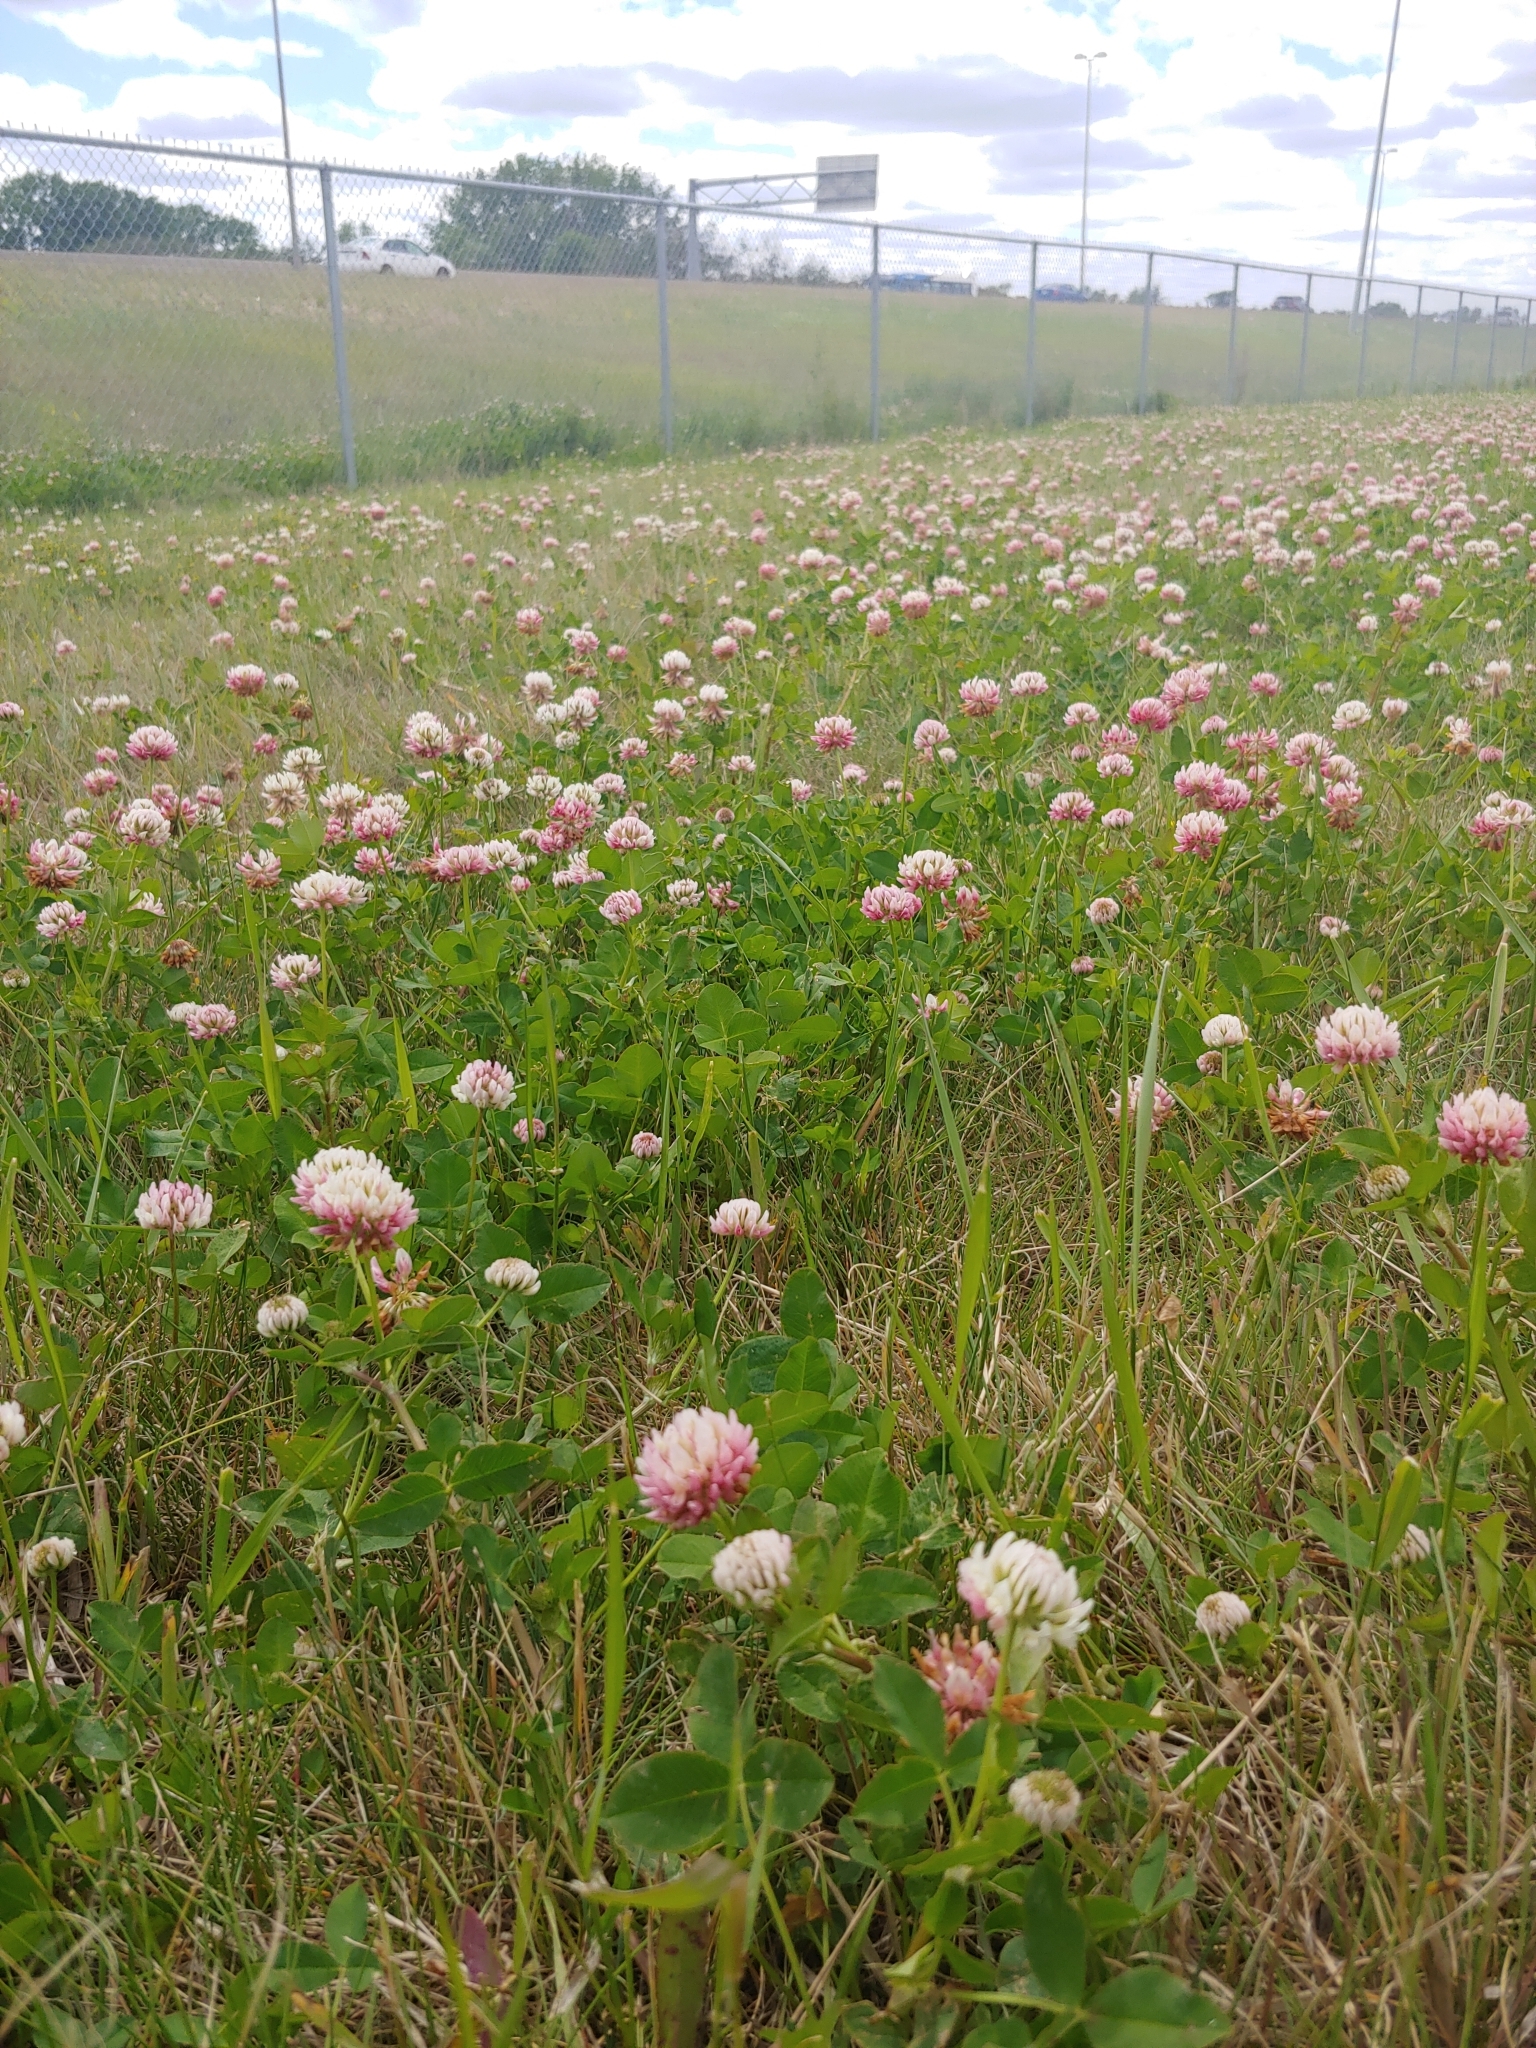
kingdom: Plantae
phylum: Tracheophyta
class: Magnoliopsida
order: Fabales
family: Fabaceae
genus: Trifolium
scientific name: Trifolium hybridum
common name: Alsike clover
